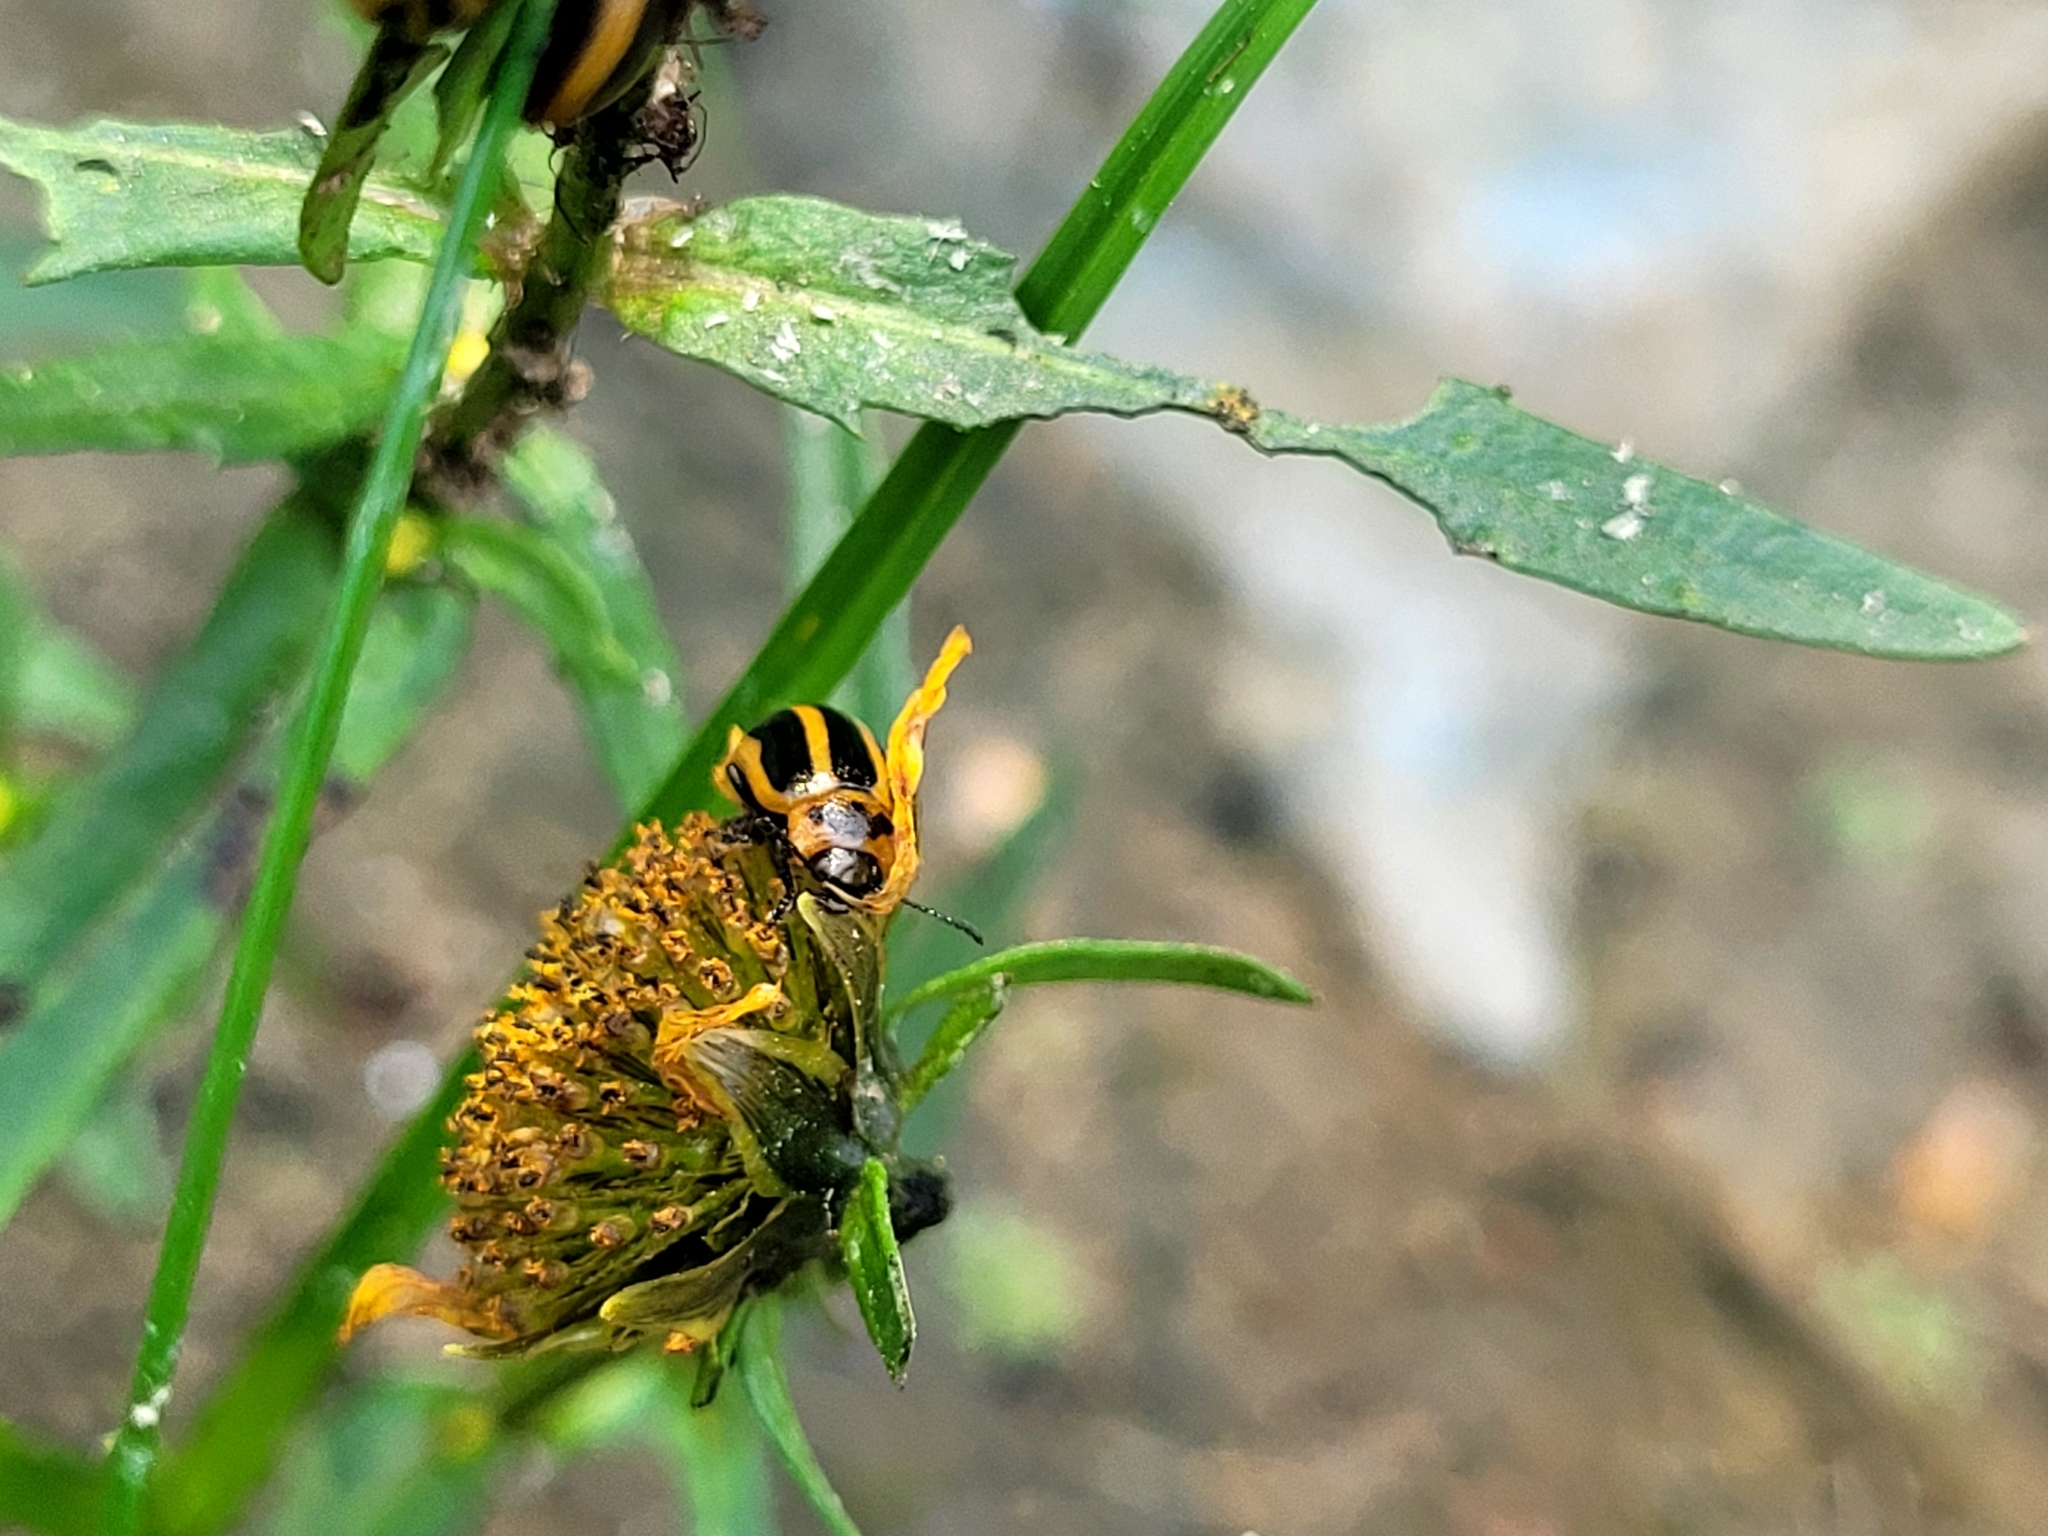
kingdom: Animalia
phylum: Arthropoda
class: Insecta
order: Coleoptera
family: Chrysomelidae
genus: Calligrapha
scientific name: Calligrapha californica
